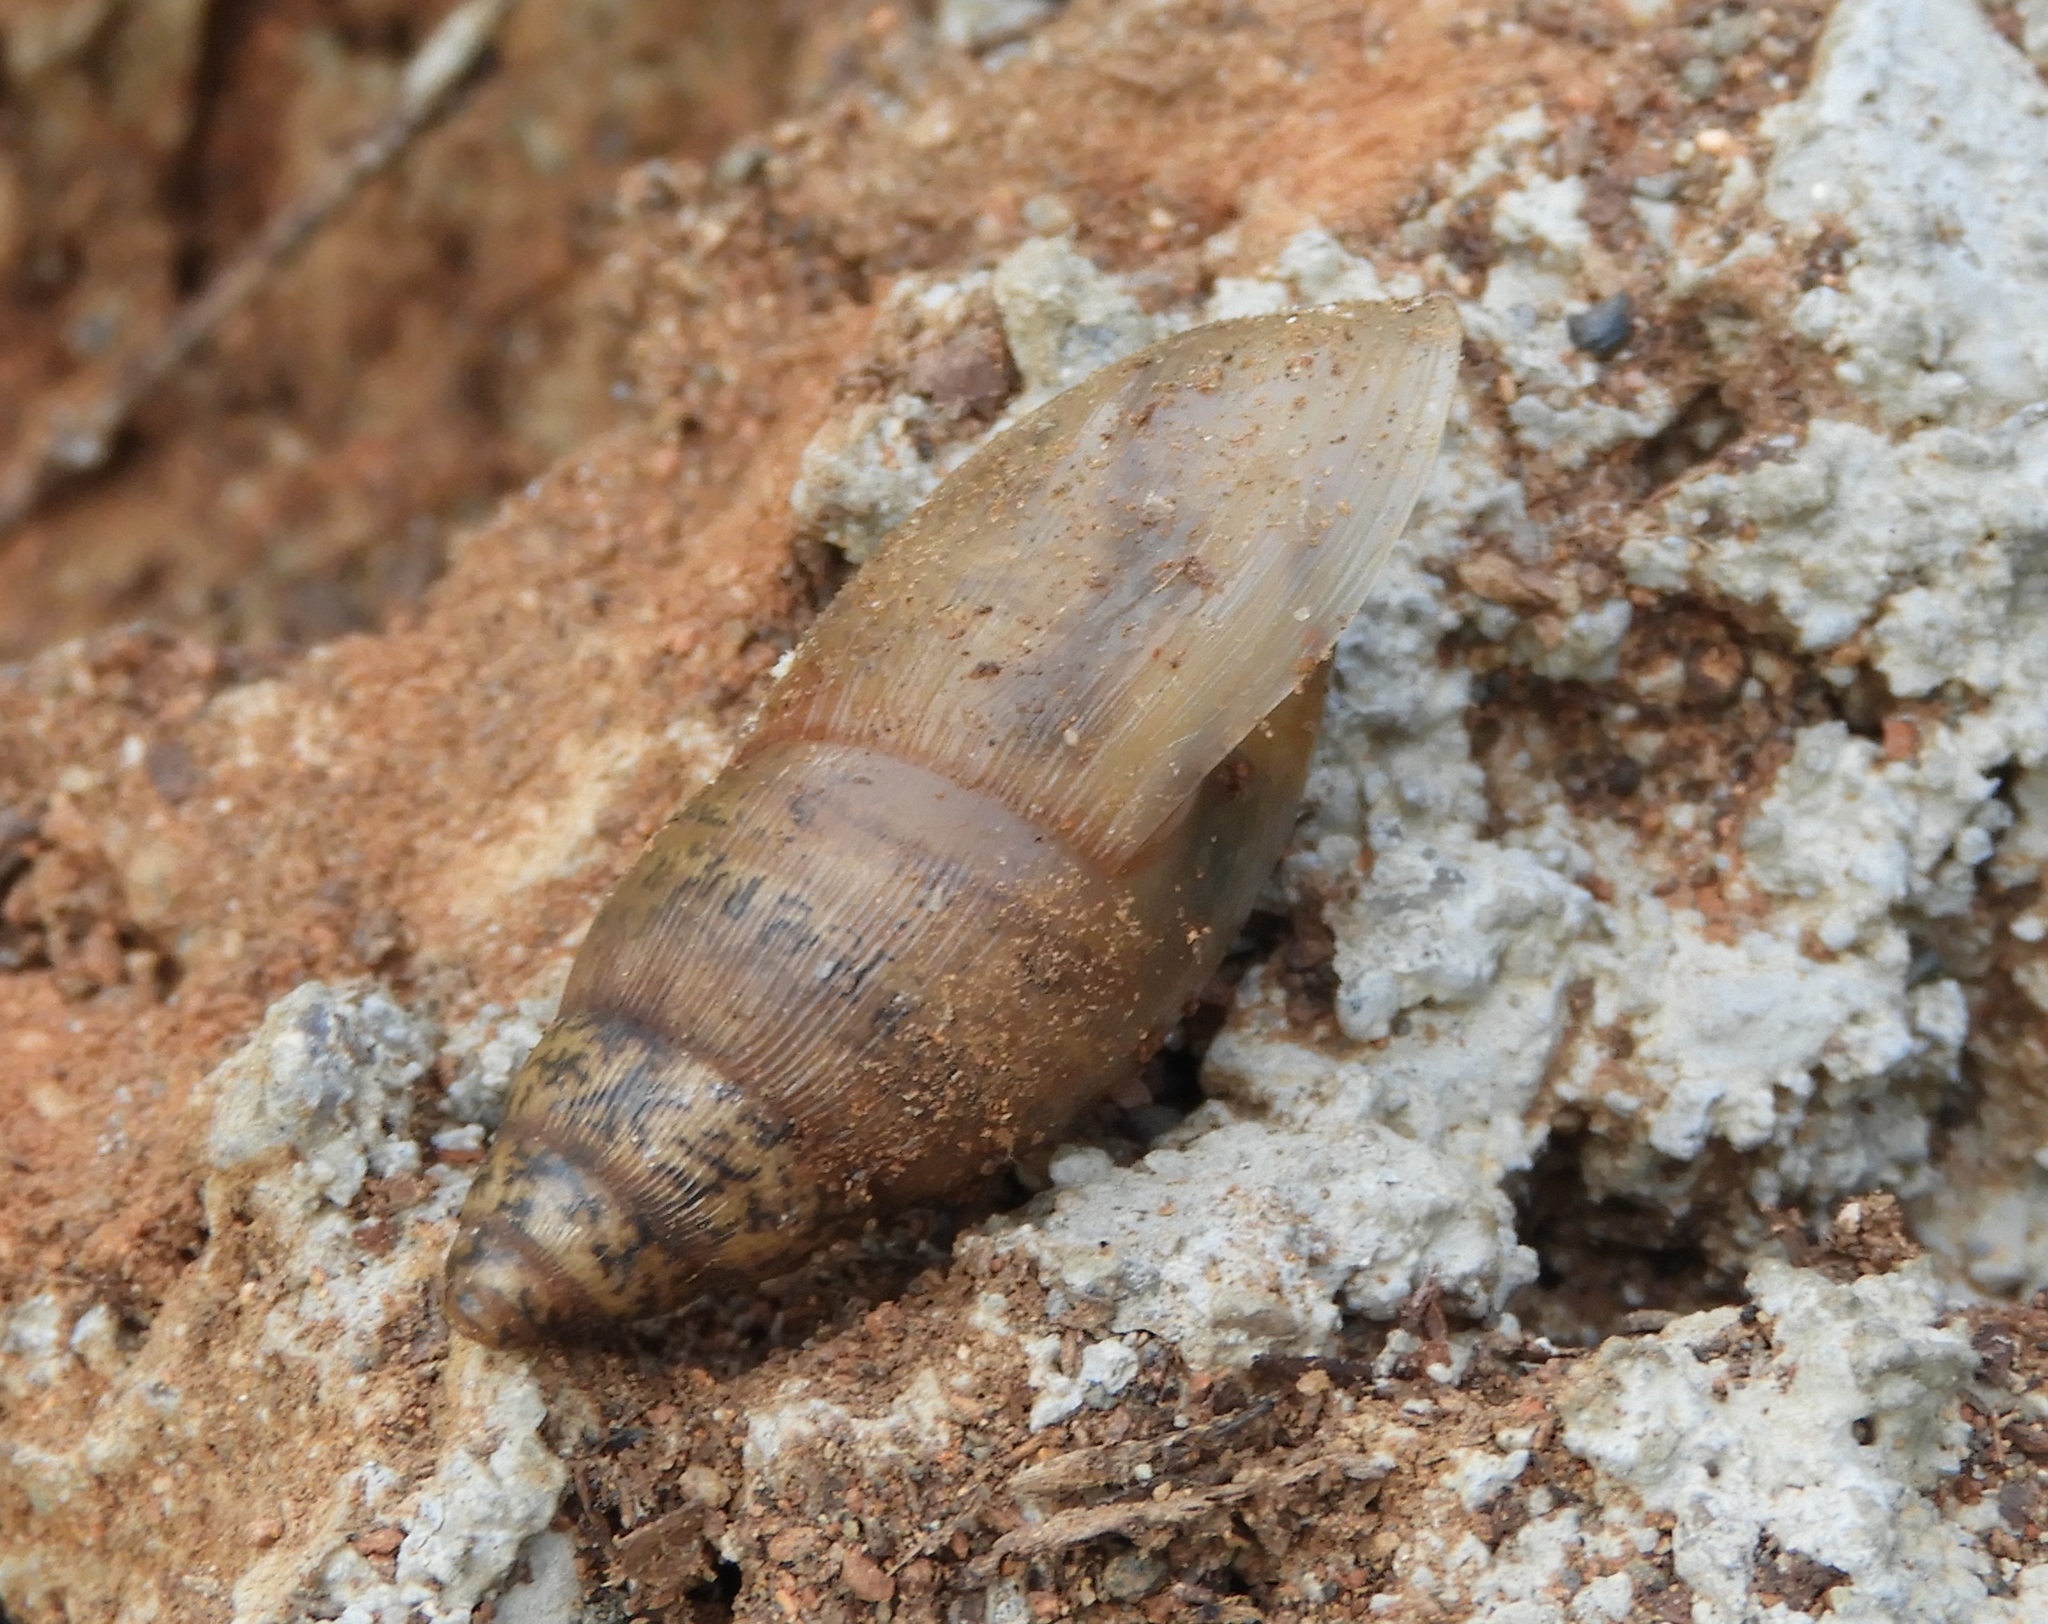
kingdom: Animalia
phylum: Mollusca
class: Gastropoda
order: Stylommatophora
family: Spiraxidae
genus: Euglandina
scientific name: Euglandina
